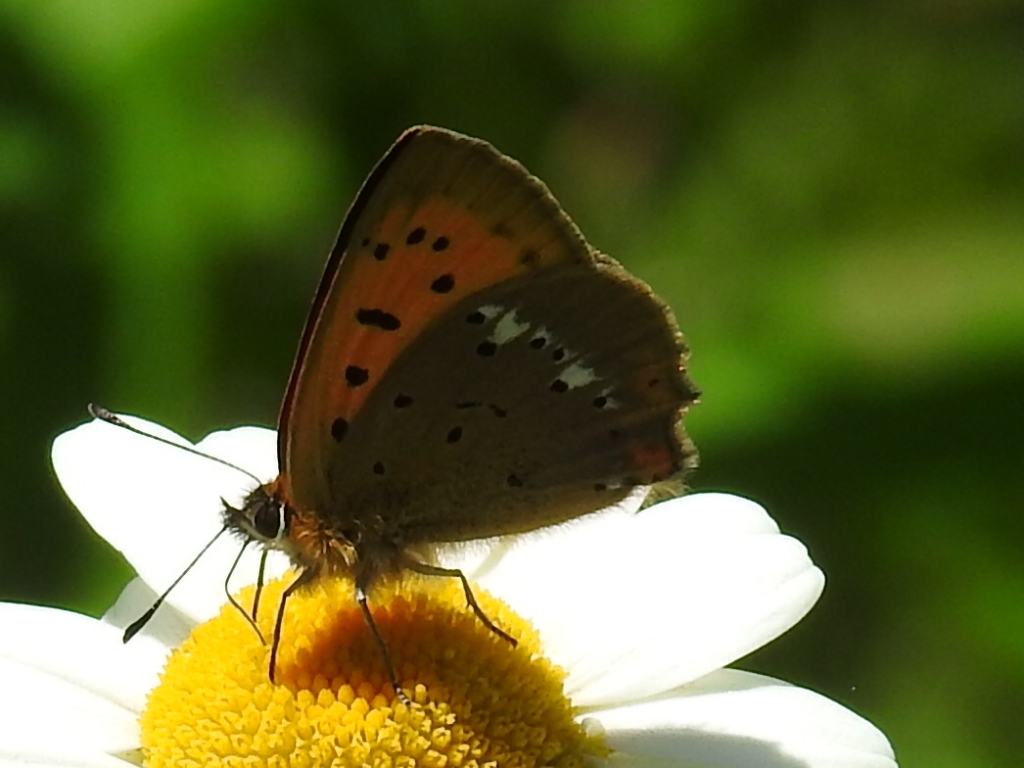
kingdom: Animalia
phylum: Arthropoda
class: Insecta
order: Lepidoptera
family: Lycaenidae
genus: Lycaena
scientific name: Lycaena virgaureae
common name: Scarce copper
